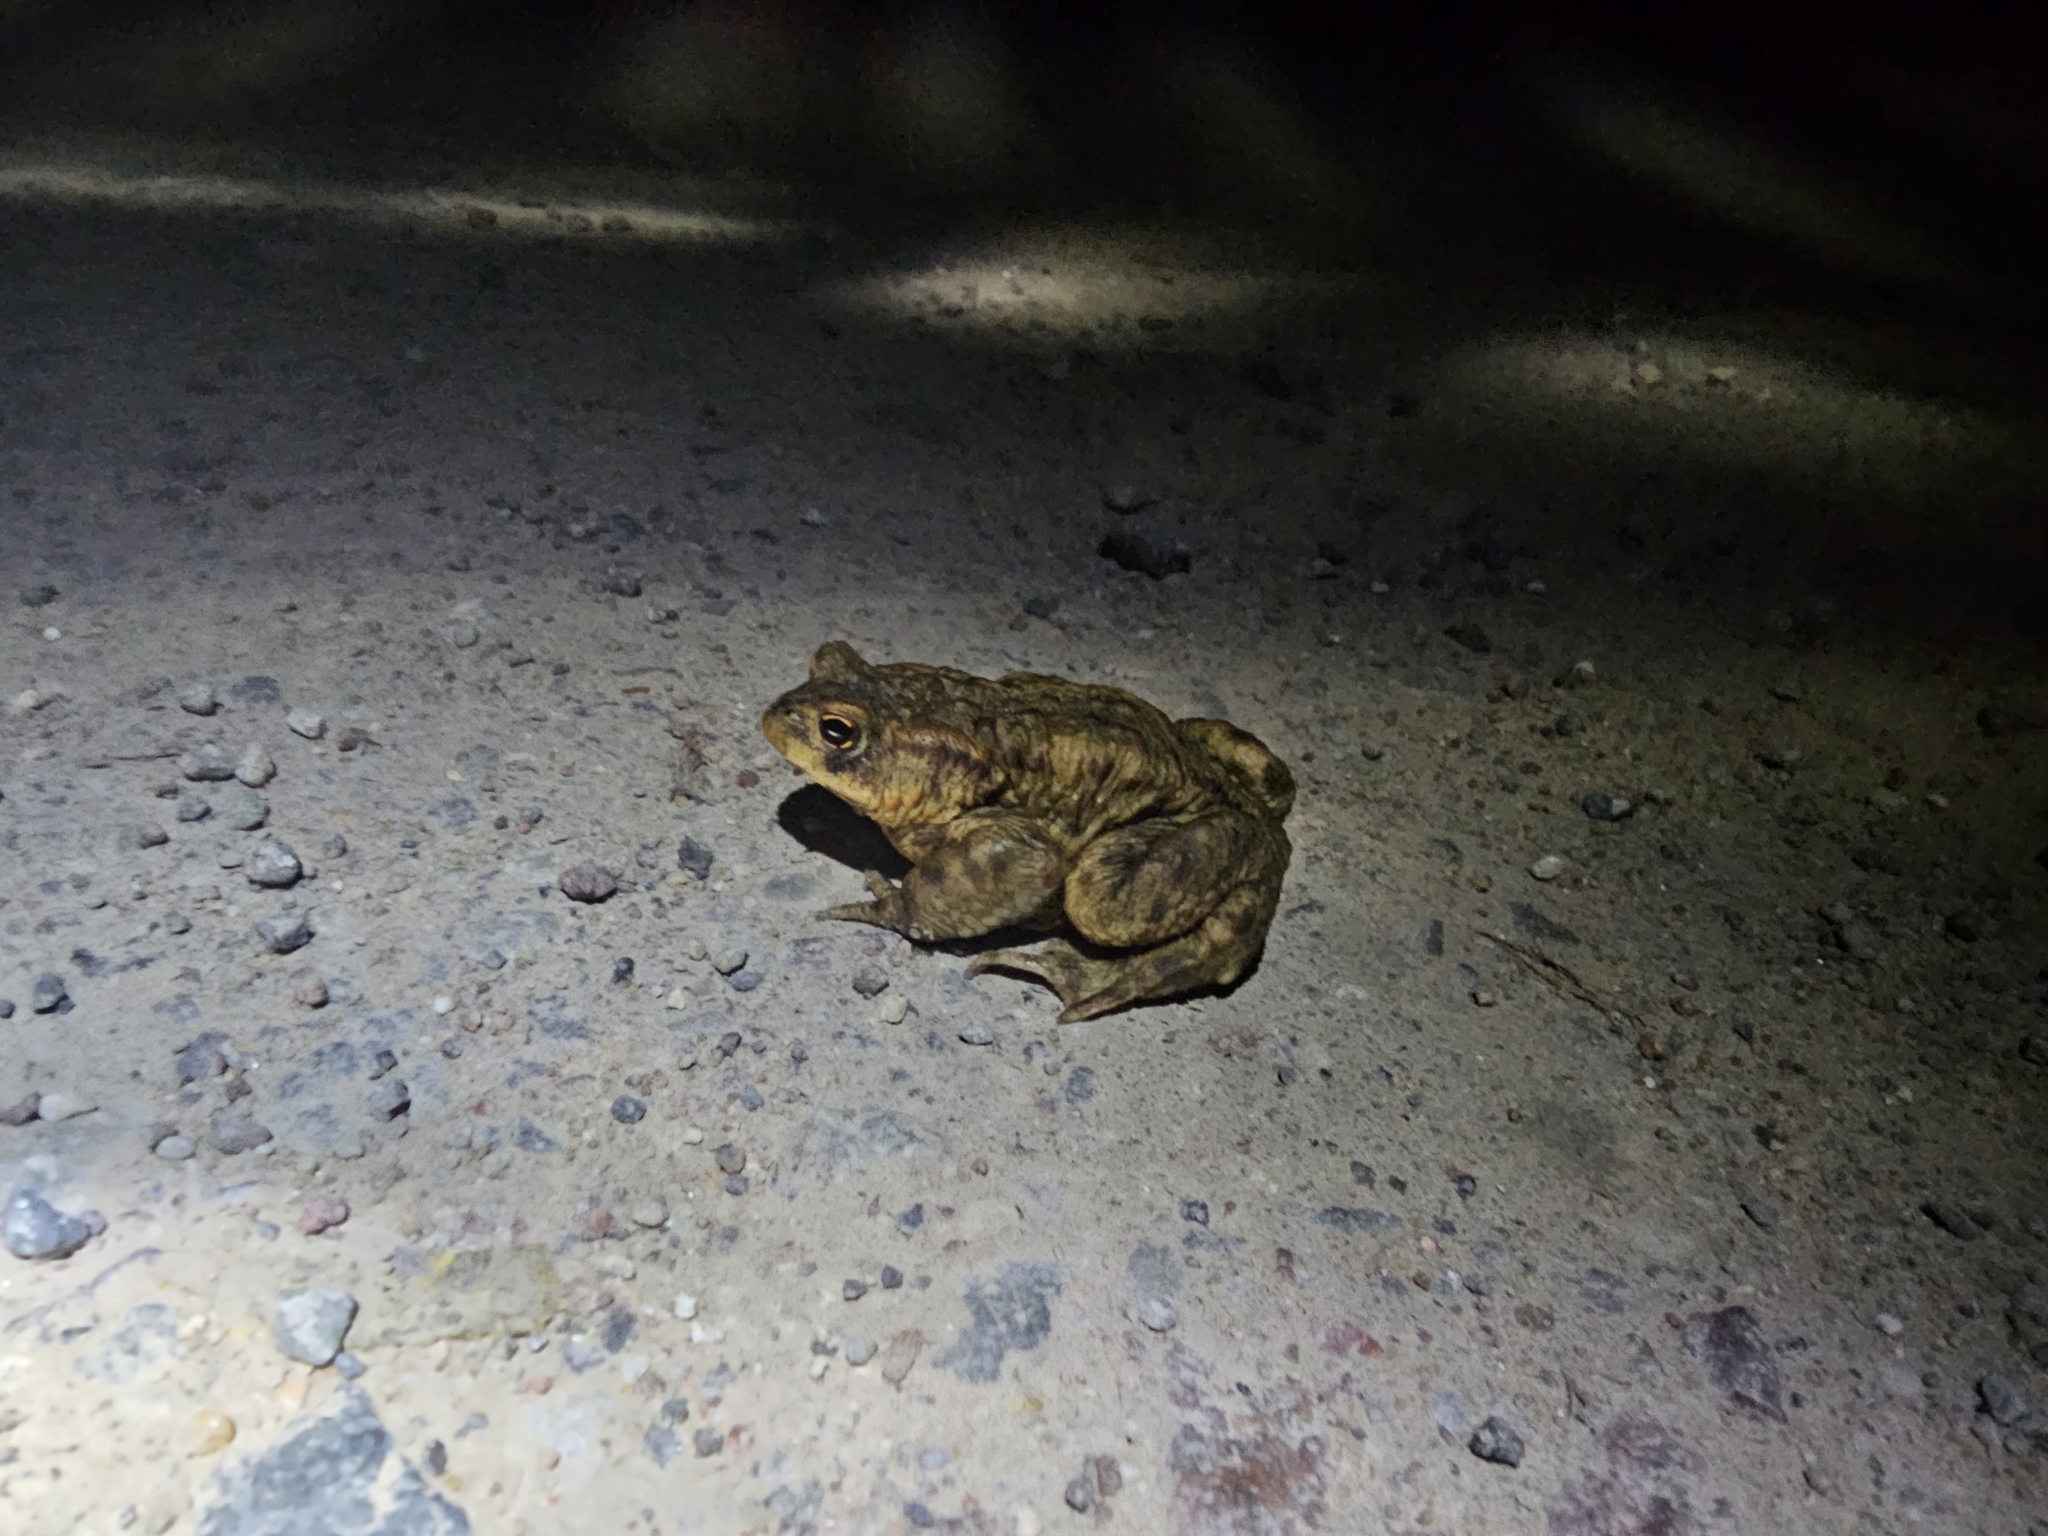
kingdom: Animalia
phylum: Chordata
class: Amphibia
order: Anura
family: Bufonidae
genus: Bufo
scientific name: Bufo bufo
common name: Common toad
